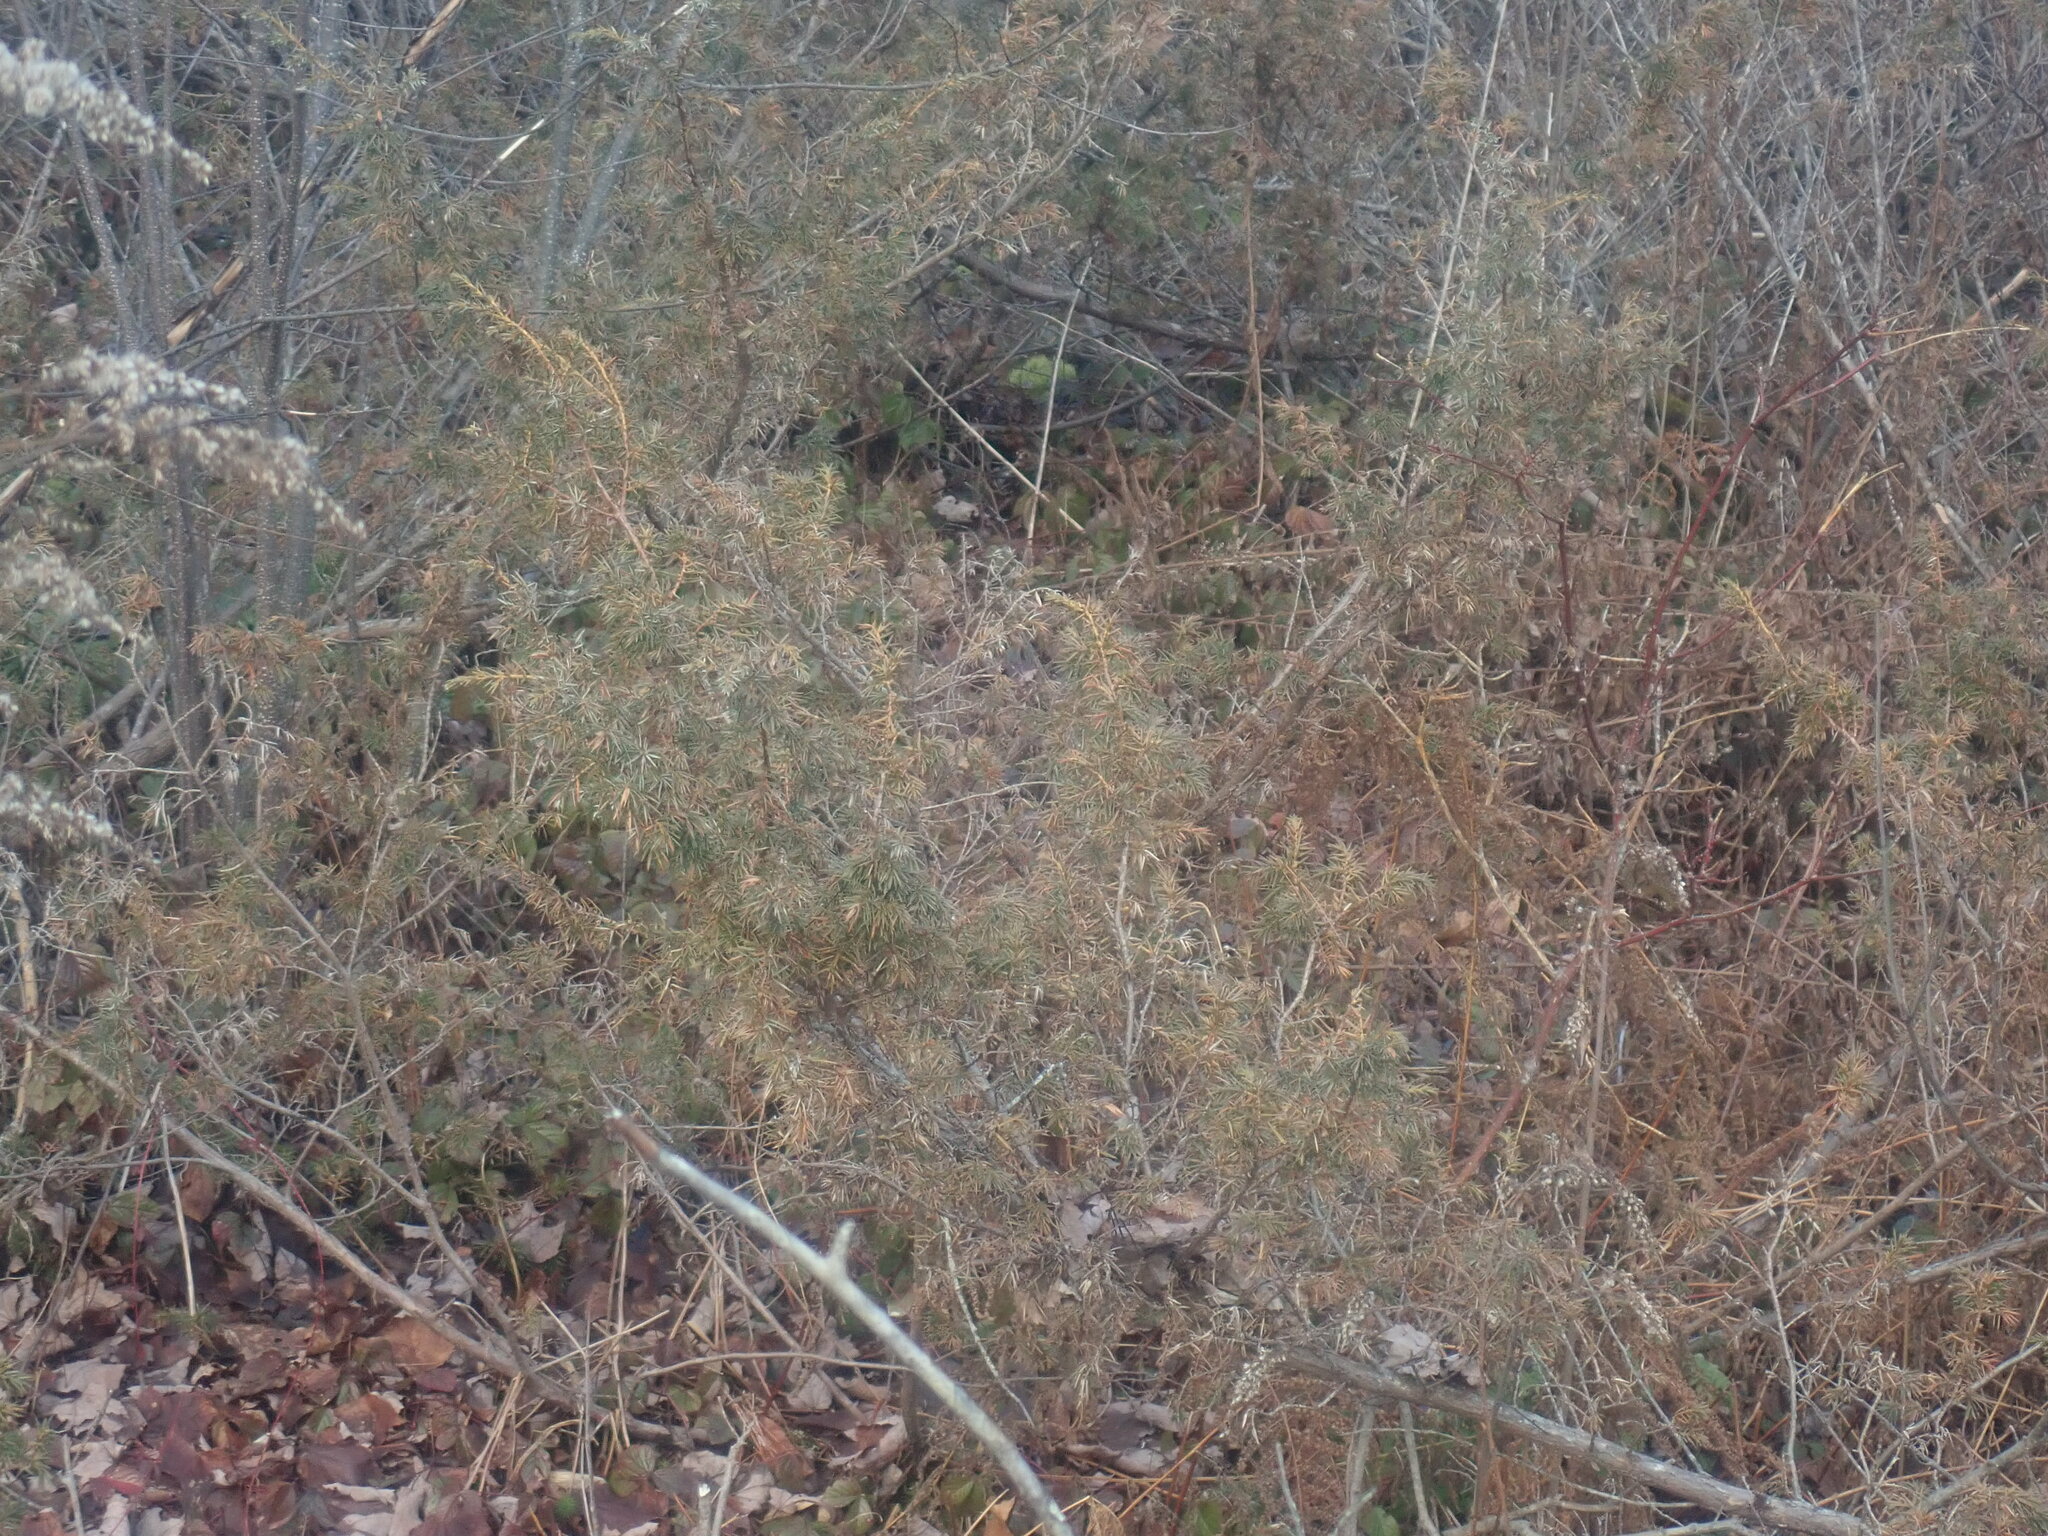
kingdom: Plantae
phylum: Tracheophyta
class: Pinopsida
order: Pinales
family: Cupressaceae
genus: Juniperus
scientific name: Juniperus communis
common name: Common juniper
